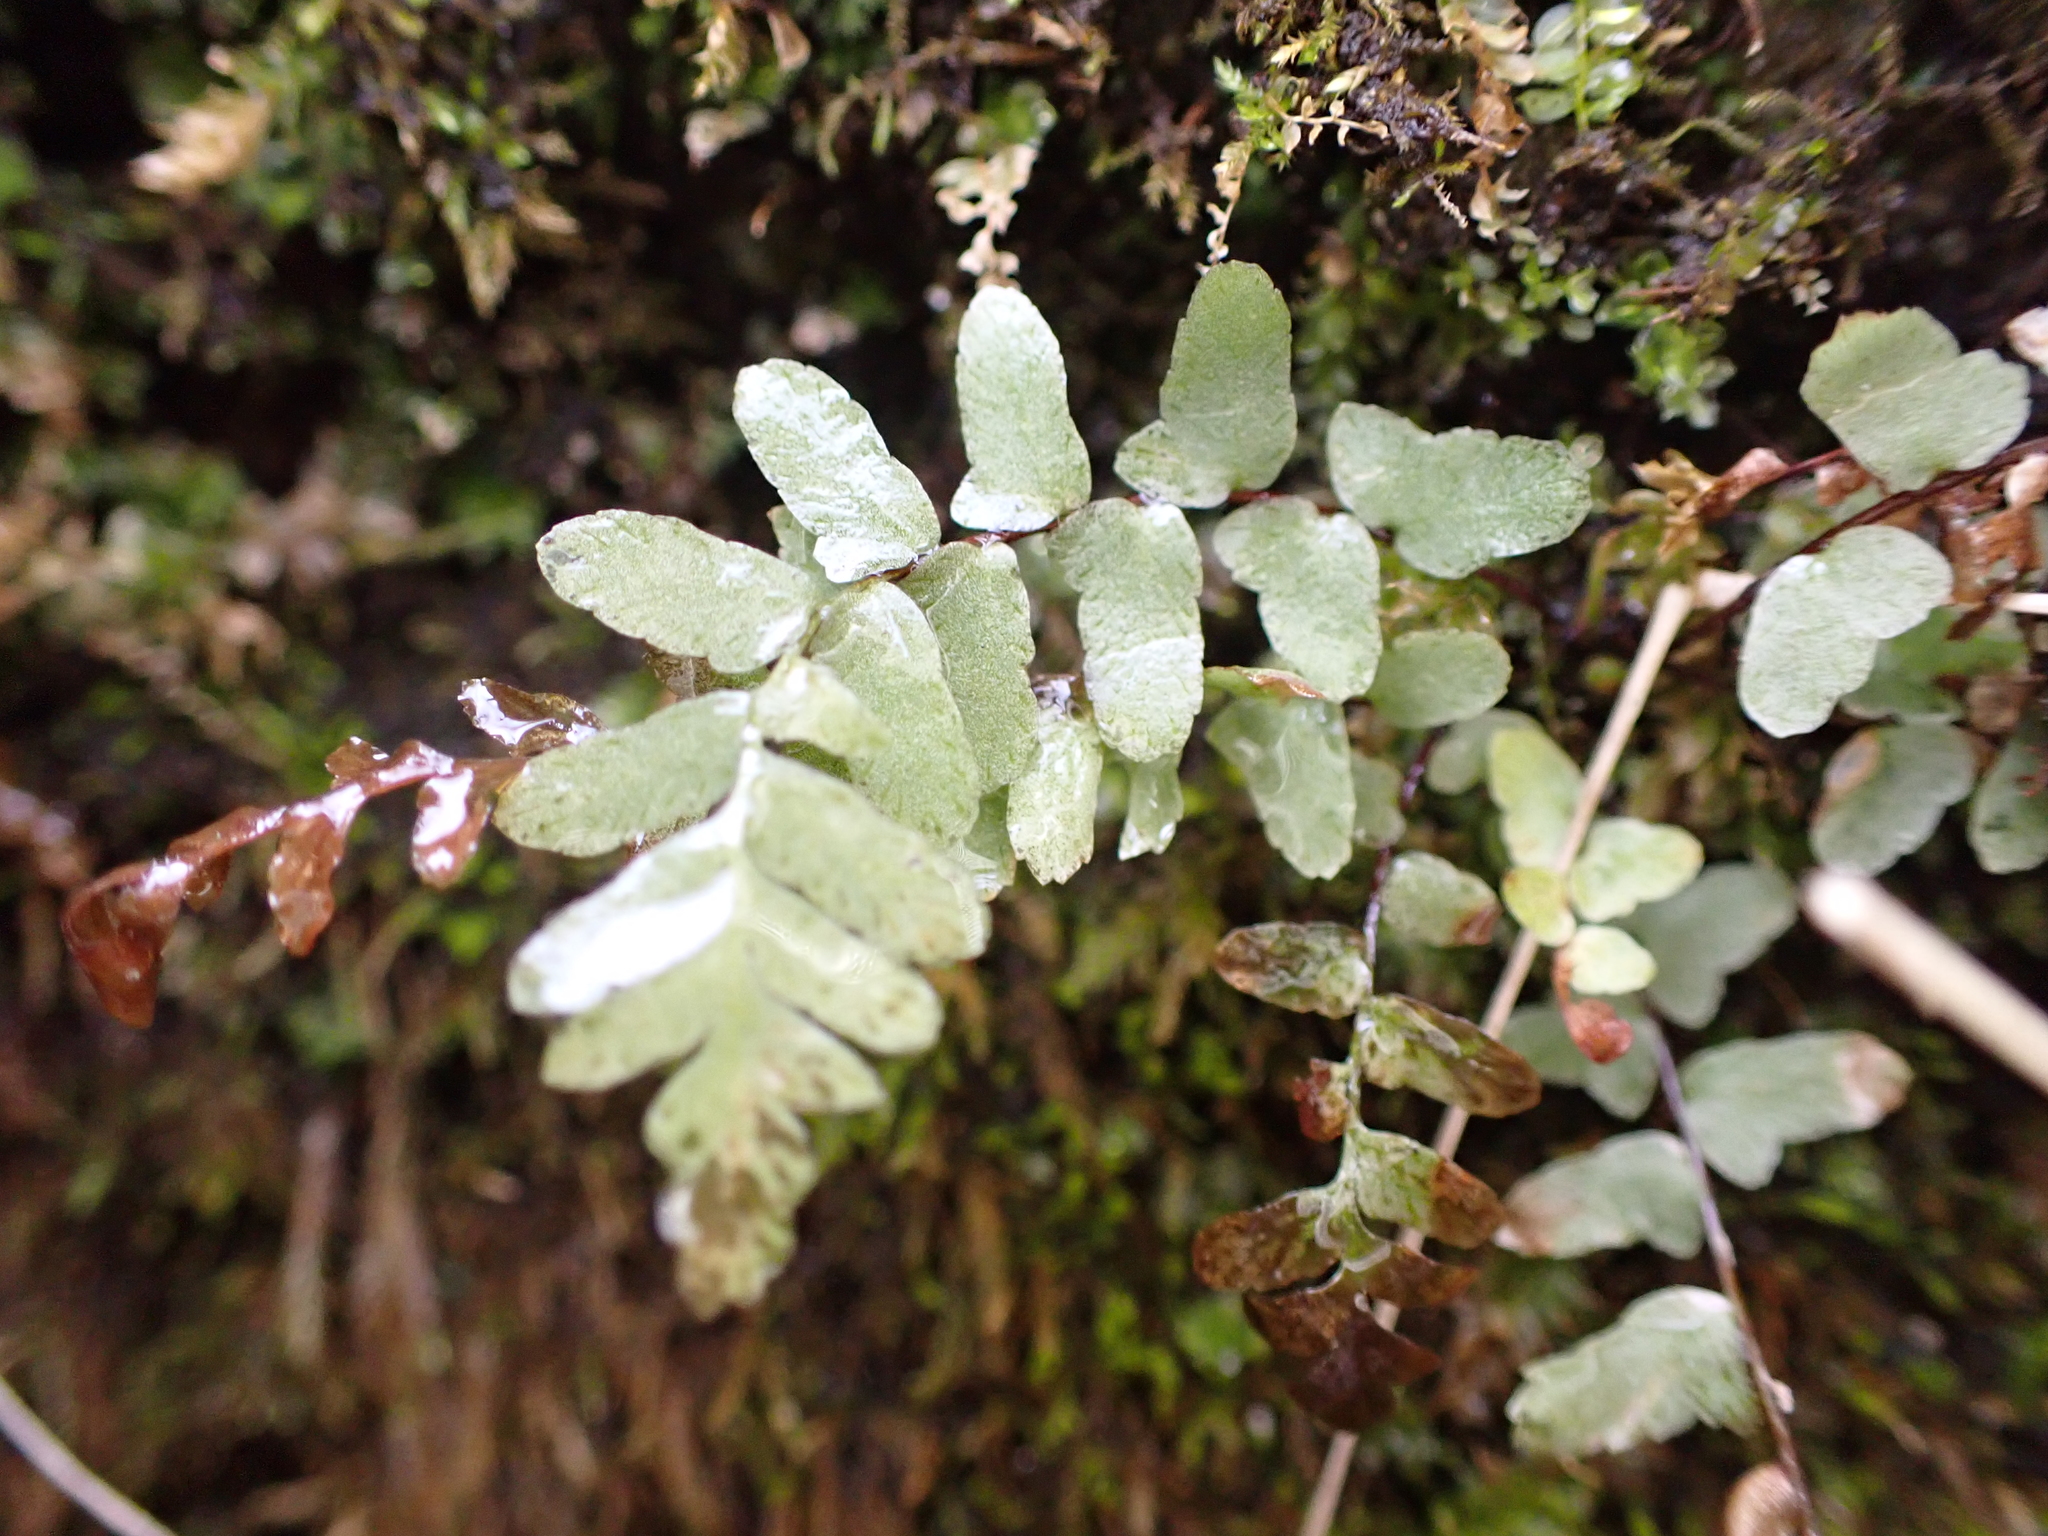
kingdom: Plantae
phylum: Tracheophyta
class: Polypodiopsida
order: Polypodiales
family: Aspleniaceae
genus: Asplenium
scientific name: Asplenium platyneuron
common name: Ebony spleenwort
